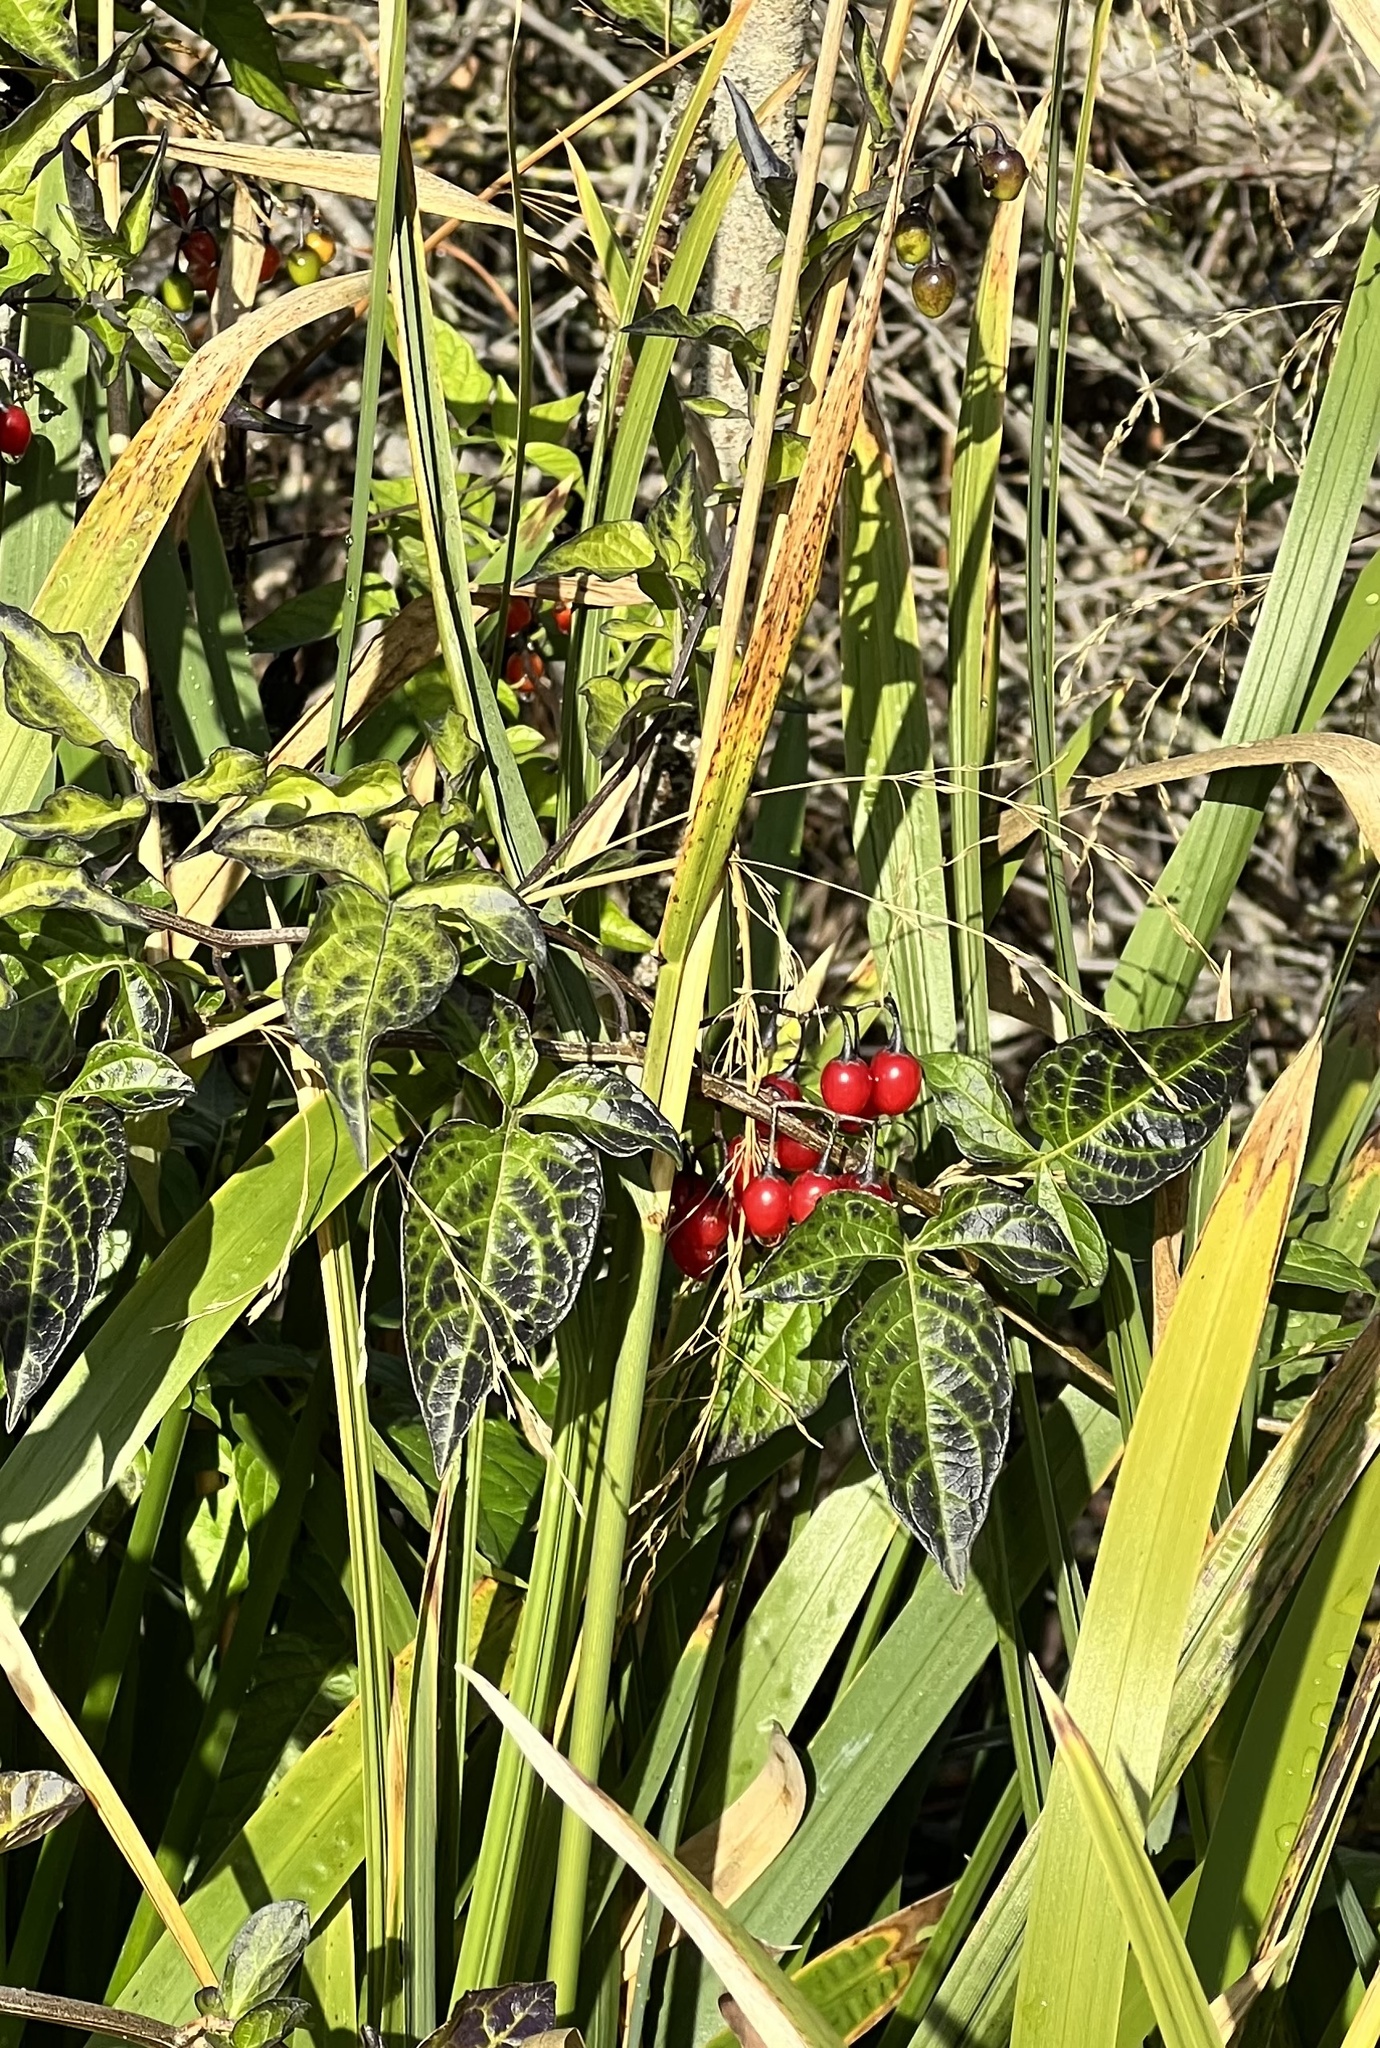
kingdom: Plantae
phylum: Tracheophyta
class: Magnoliopsida
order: Solanales
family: Solanaceae
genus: Solanum
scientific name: Solanum dulcamara
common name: Climbing nightshade
